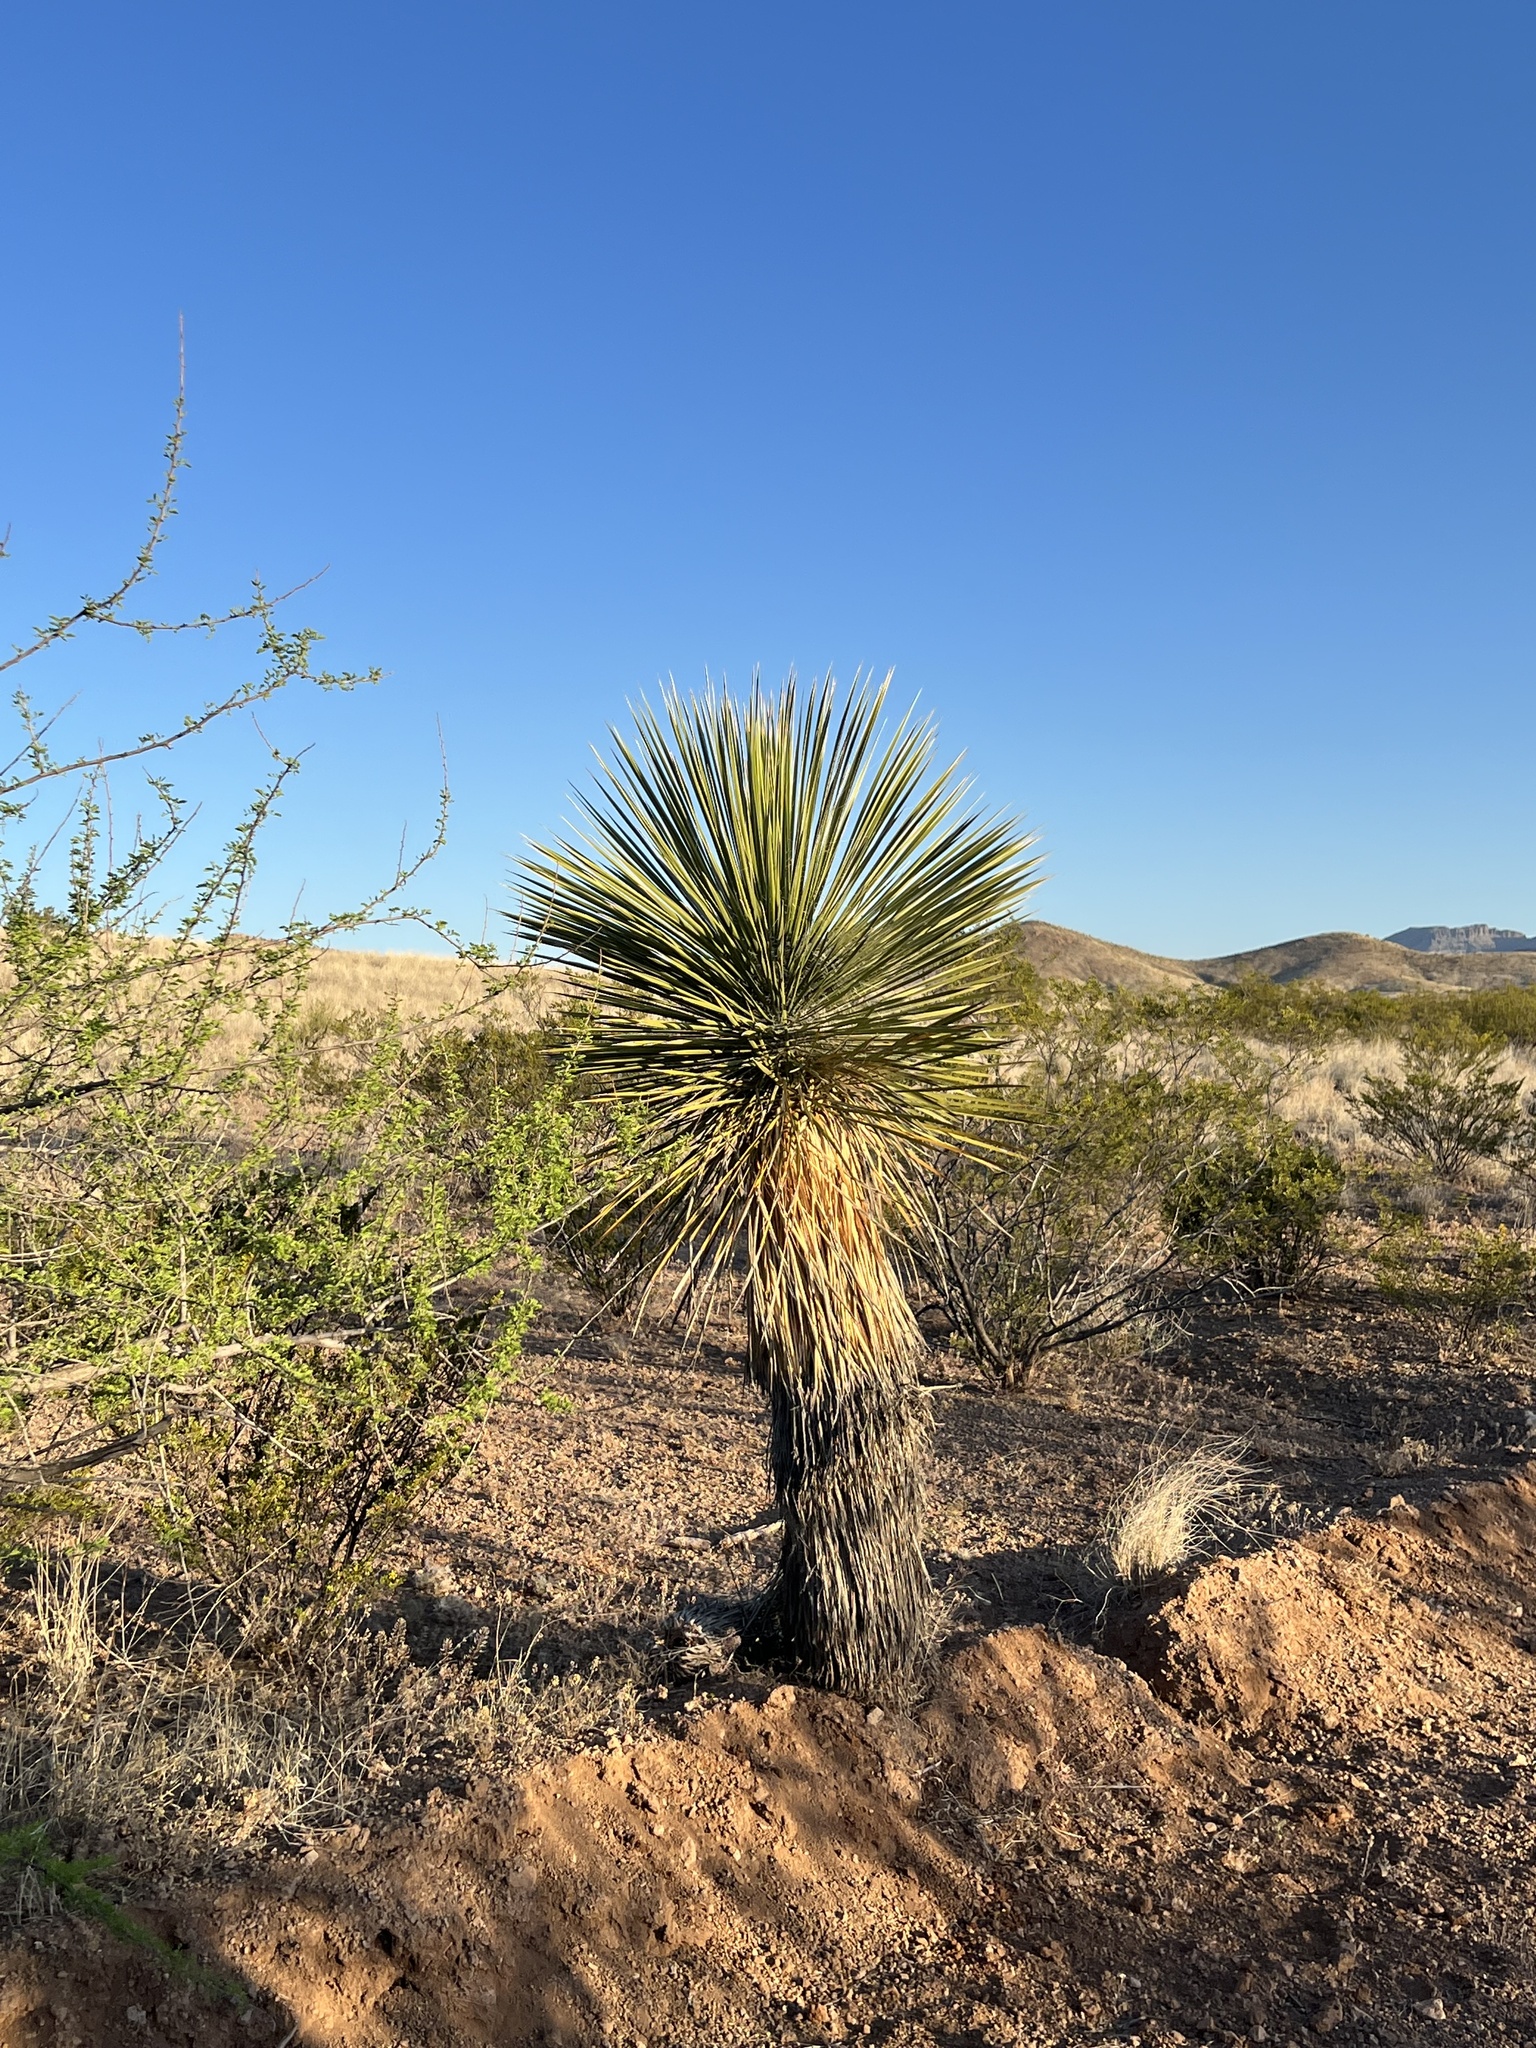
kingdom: Plantae
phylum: Tracheophyta
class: Liliopsida
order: Asparagales
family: Asparagaceae
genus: Yucca
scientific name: Yucca elata
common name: Palmella
